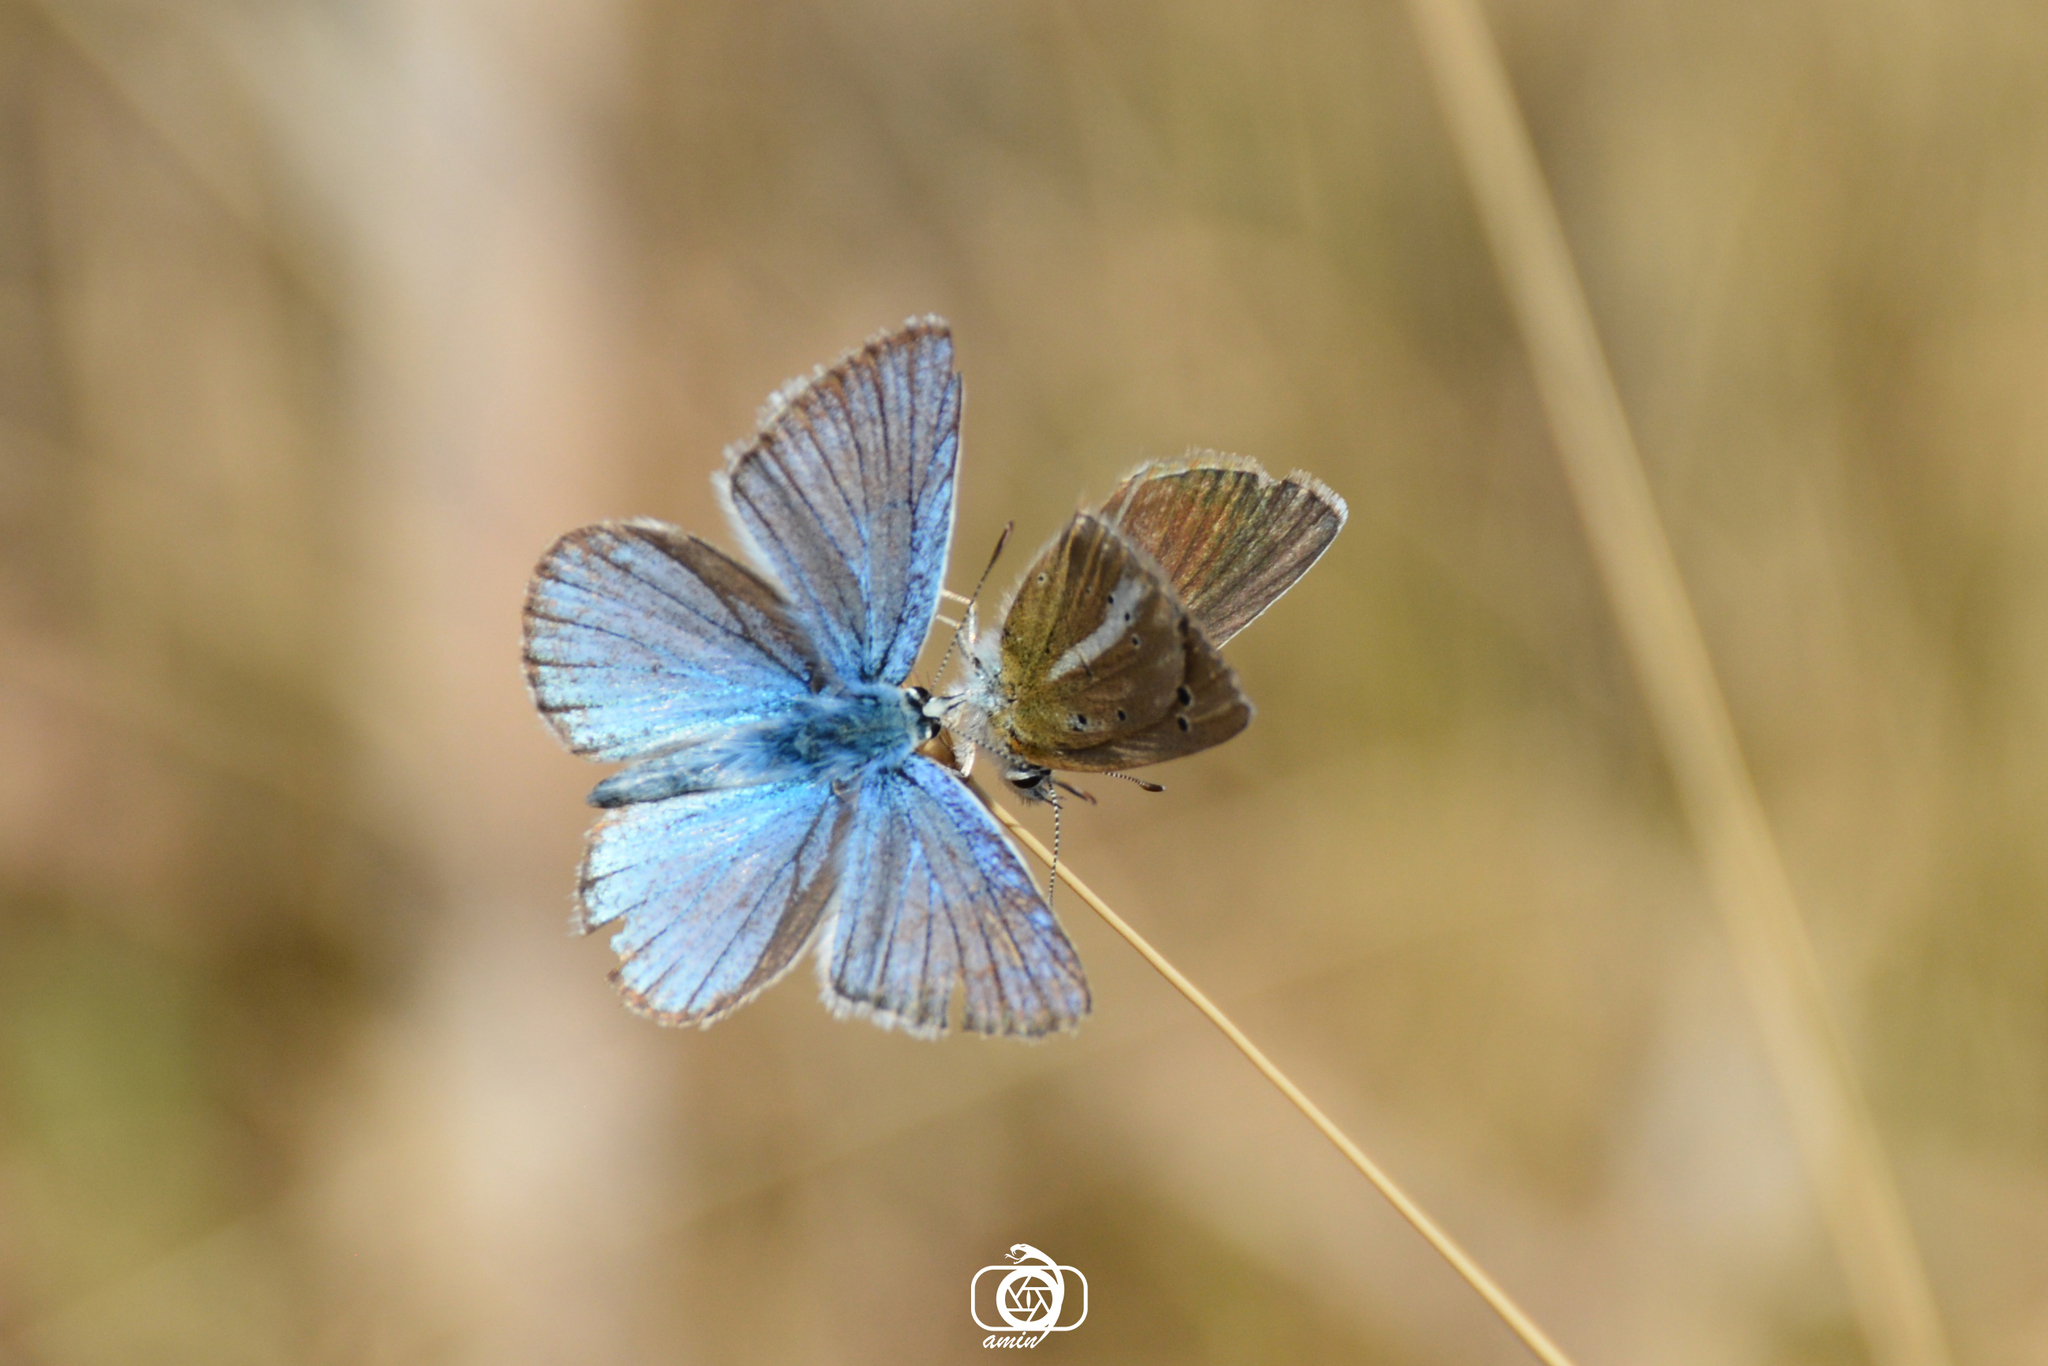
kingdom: Animalia
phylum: Arthropoda
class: Insecta
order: Lepidoptera
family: Lycaenidae
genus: Polyommatus
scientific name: Polyommatus vanensis
